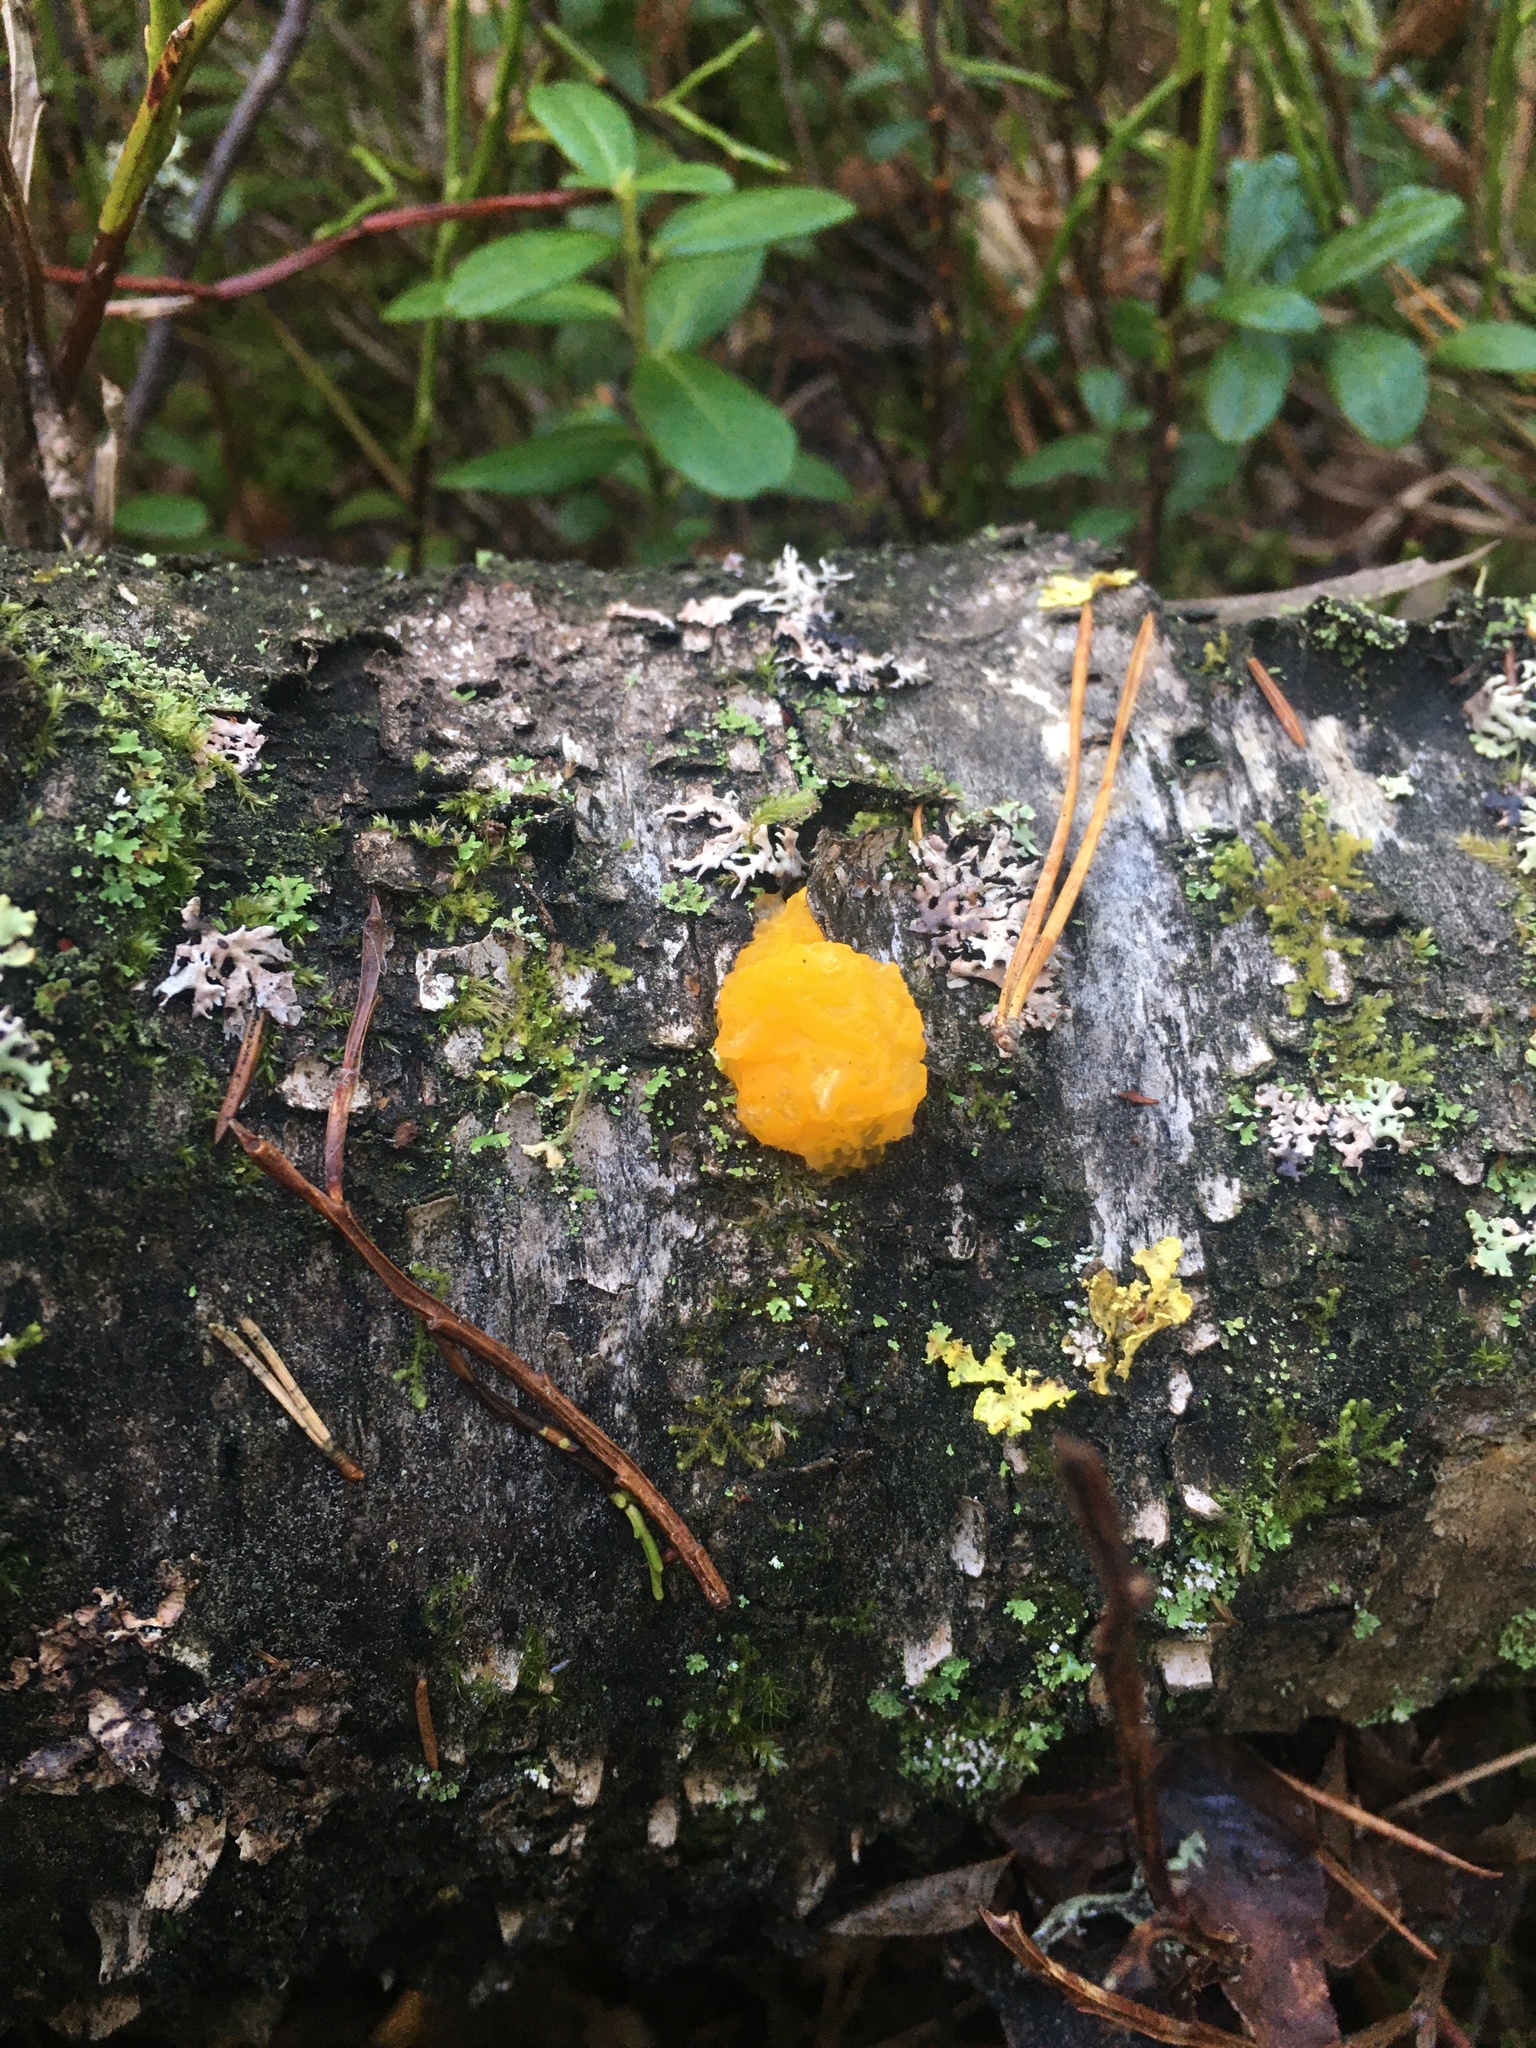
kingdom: Fungi
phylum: Basidiomycota
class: Tremellomycetes
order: Tremellales
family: Tremellaceae
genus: Tremella
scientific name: Tremella mesenterica
